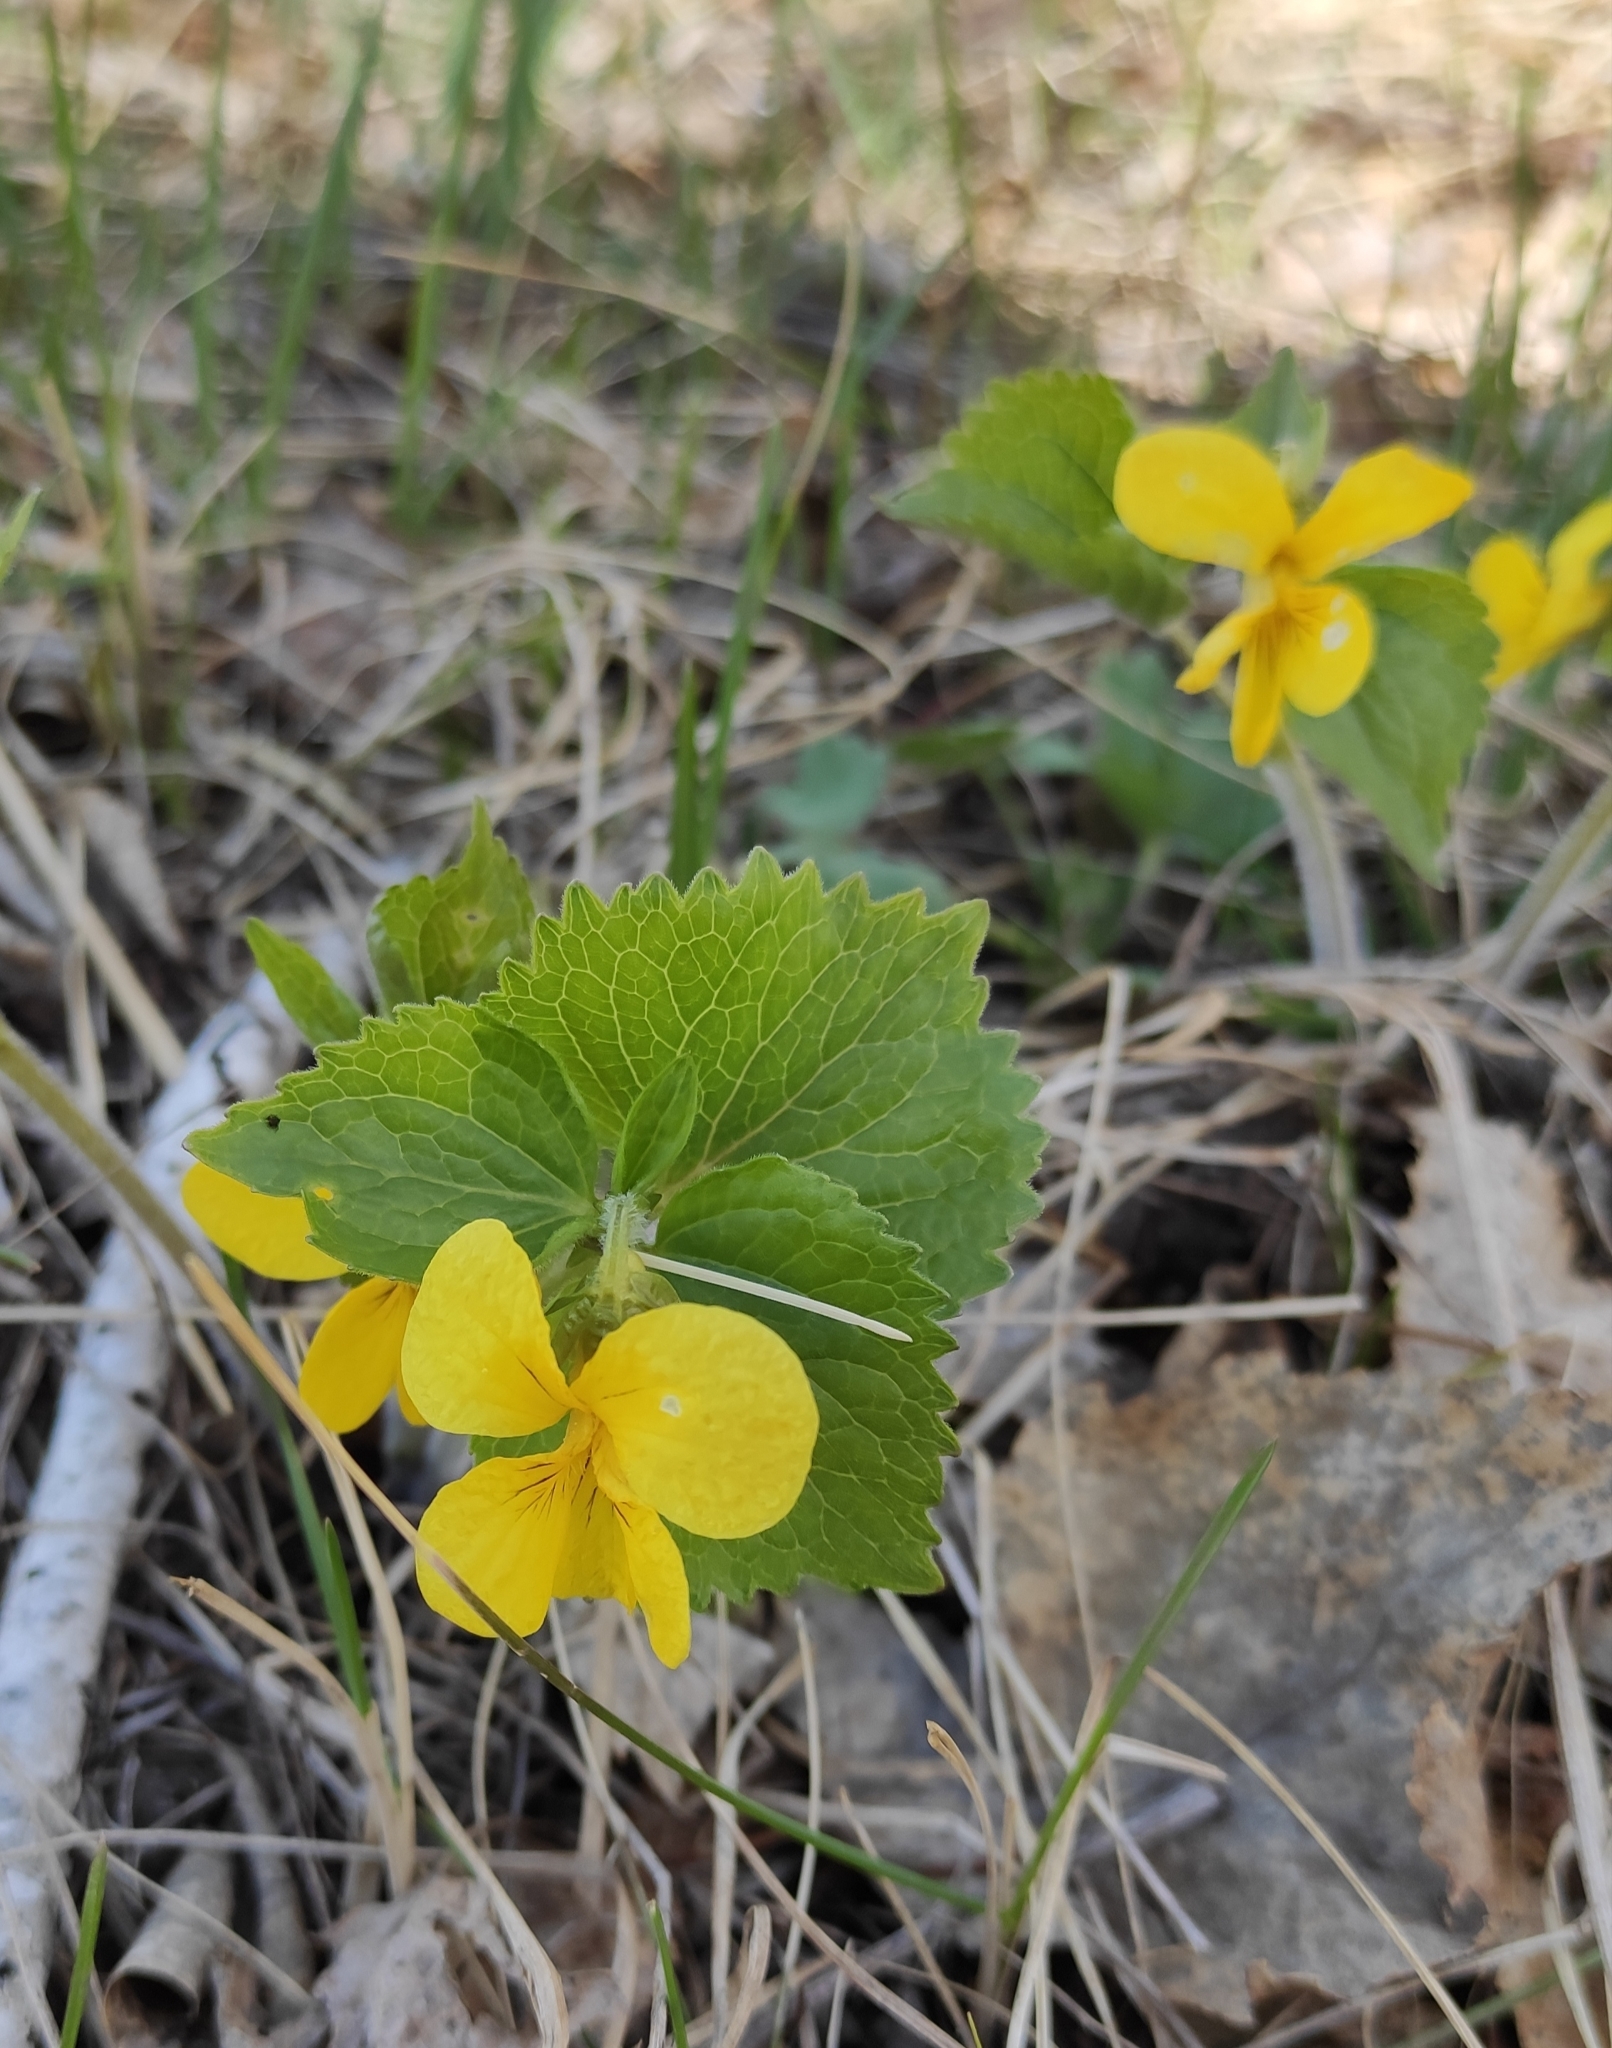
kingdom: Plantae
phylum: Tracheophyta
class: Magnoliopsida
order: Malpighiales
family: Violaceae
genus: Viola
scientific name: Viola uniflora
